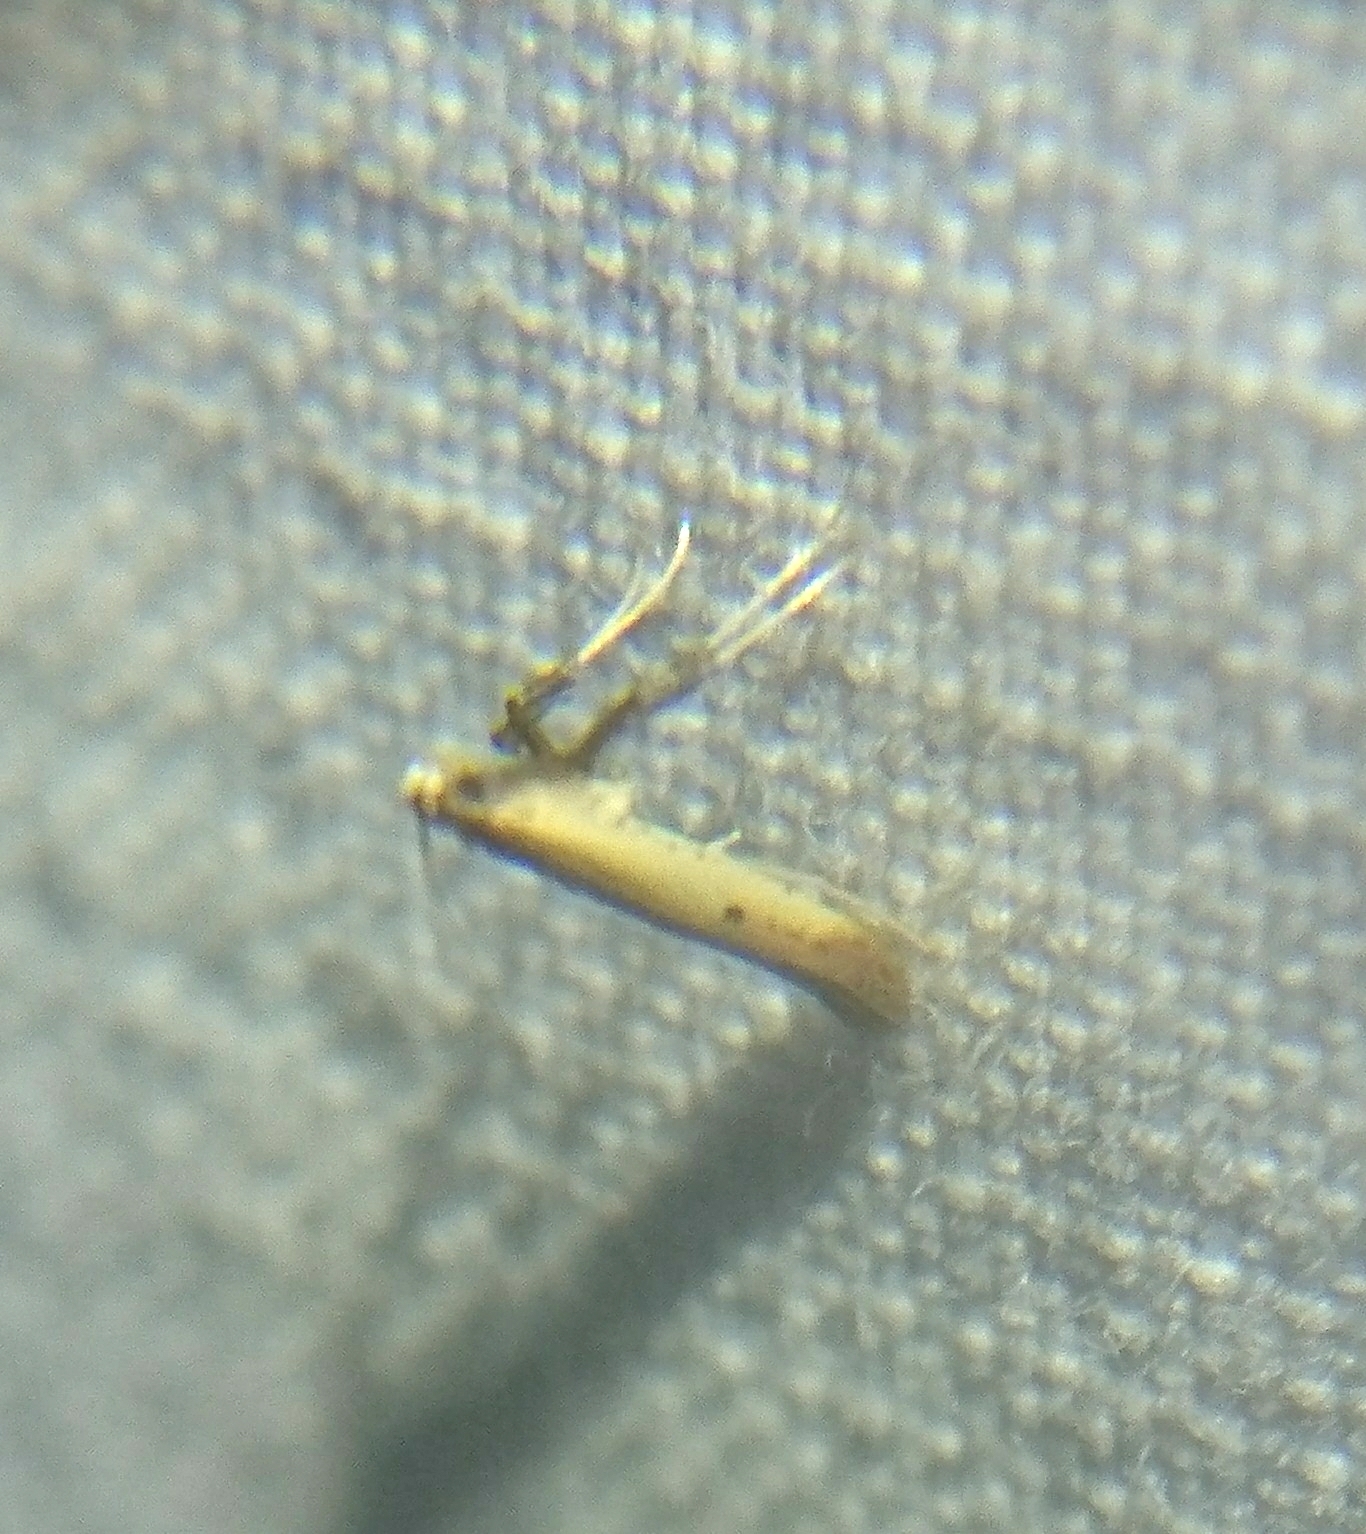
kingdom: Animalia
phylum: Arthropoda
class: Insecta
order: Lepidoptera
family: Gracillariidae
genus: Caloptilia
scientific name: Caloptilia violacella
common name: Tick-trefoil caloptilia moth
